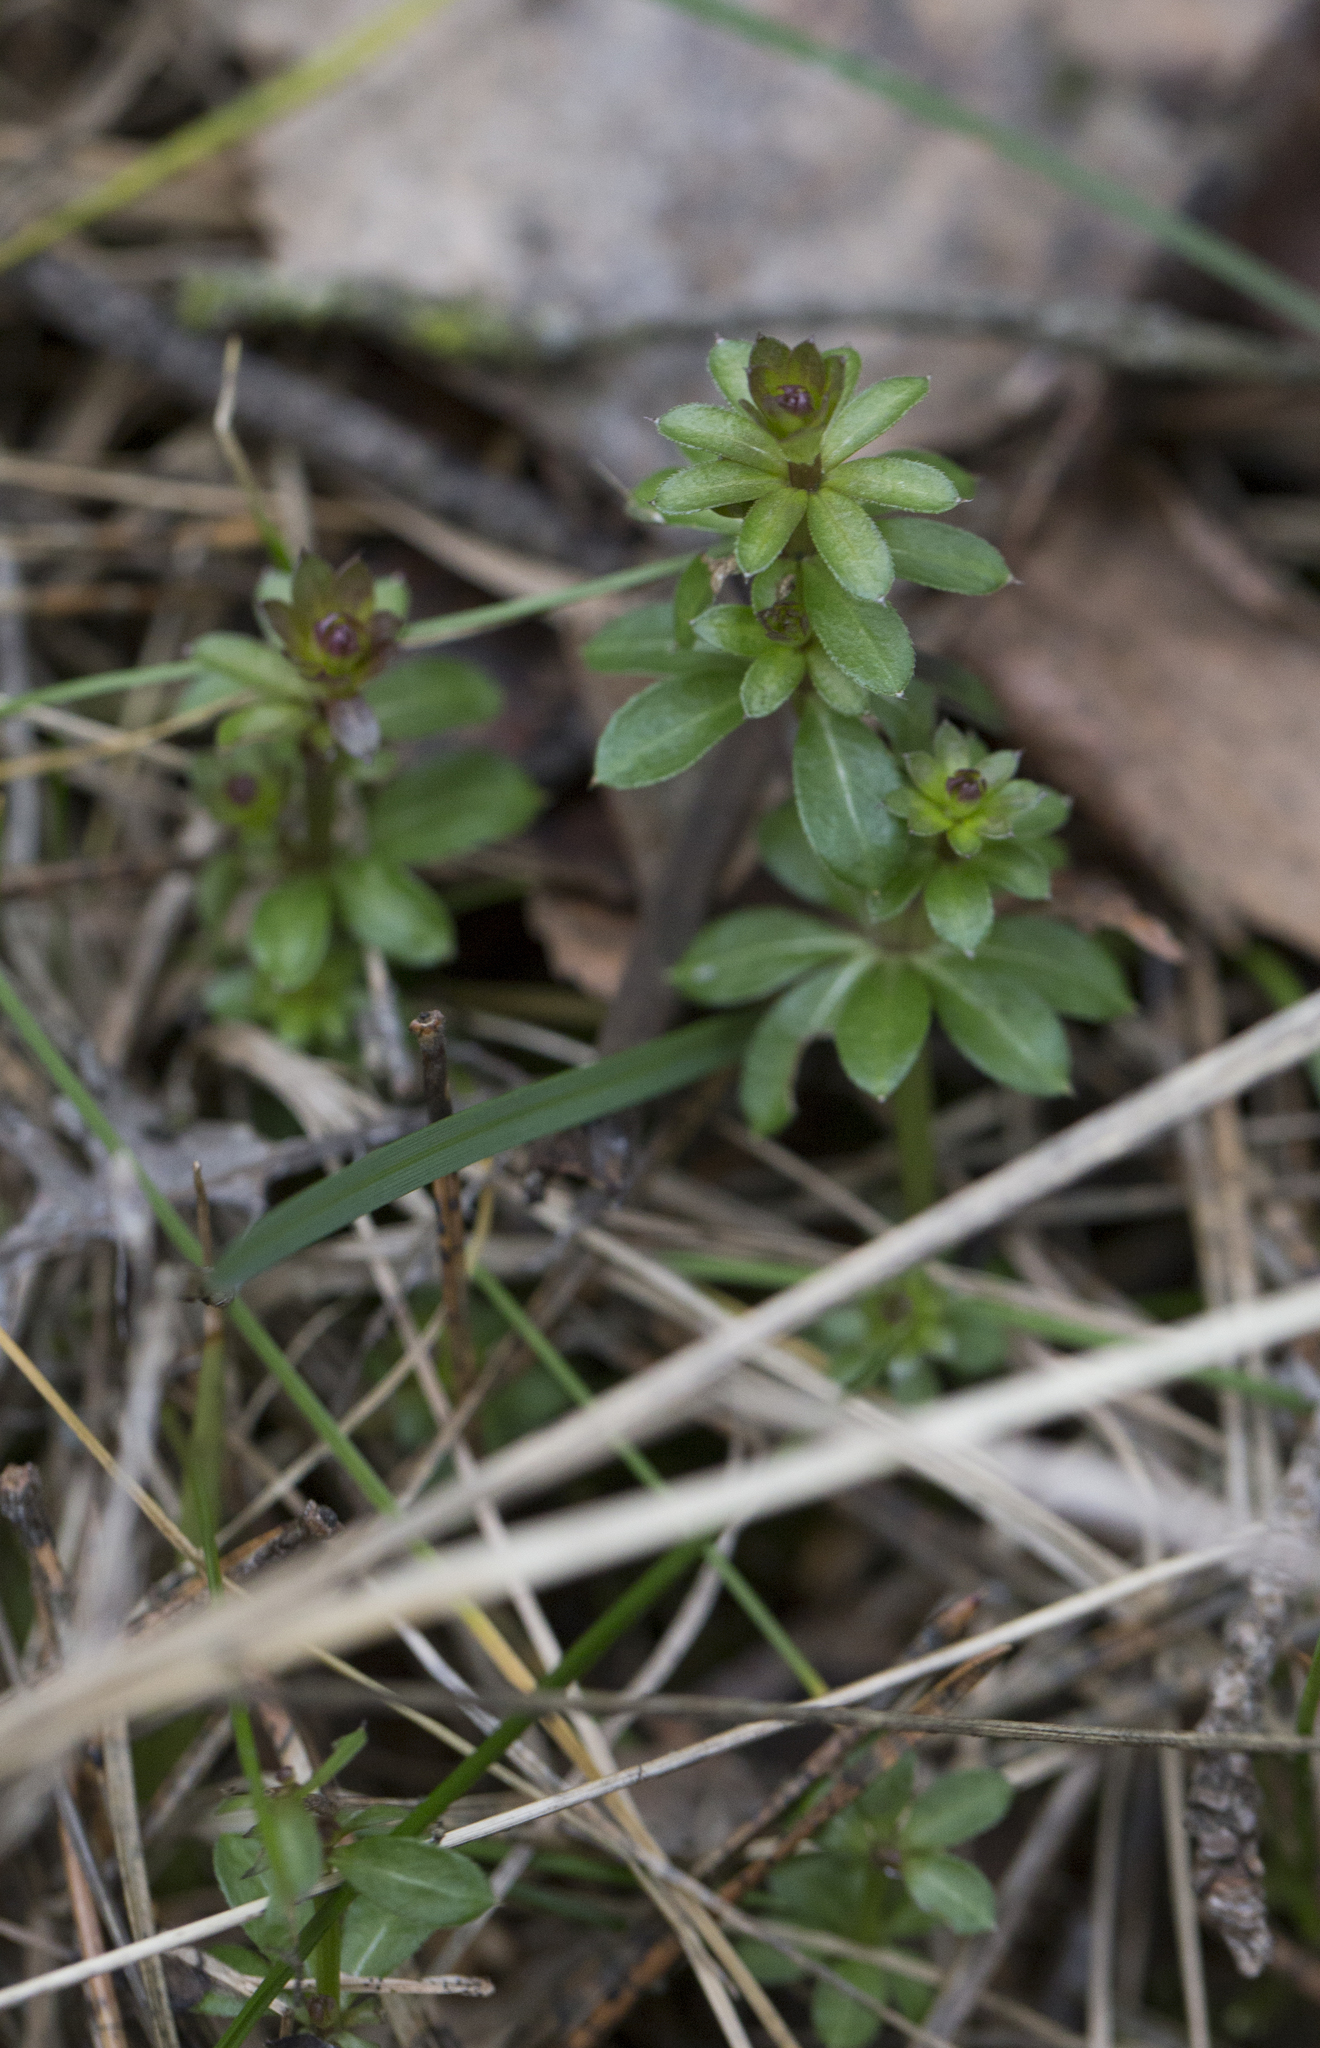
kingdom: Plantae
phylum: Tracheophyta
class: Magnoliopsida
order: Gentianales
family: Rubiaceae
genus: Galium
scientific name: Galium mollugo
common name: Hedge bedstraw
